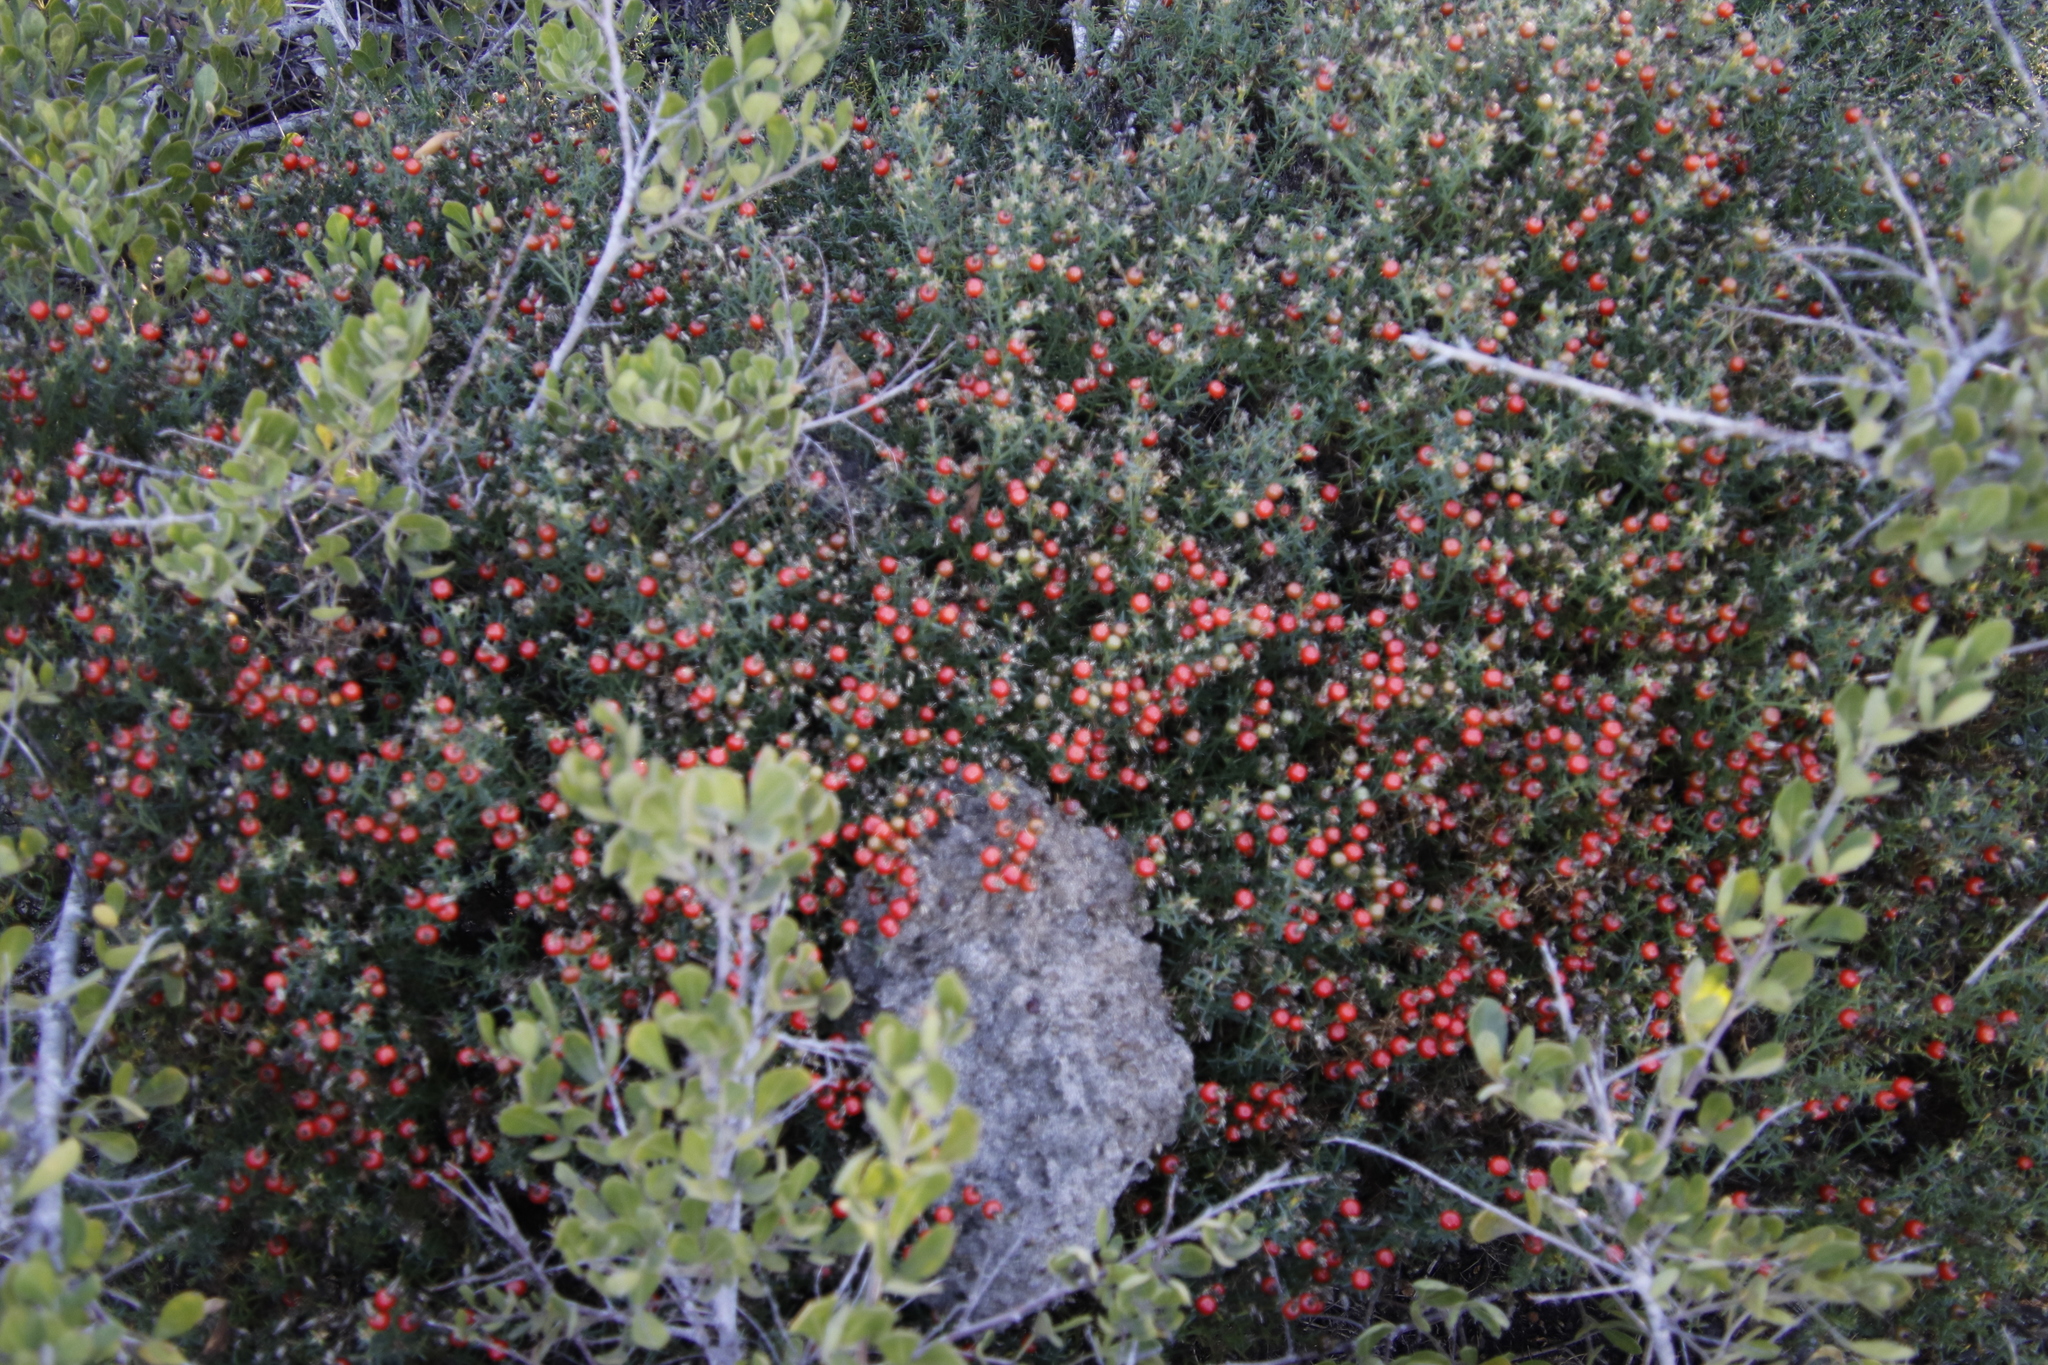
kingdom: Plantae
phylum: Tracheophyta
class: Magnoliopsida
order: Gentianales
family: Gentianaceae
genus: Chironia
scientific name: Chironia baccifera
